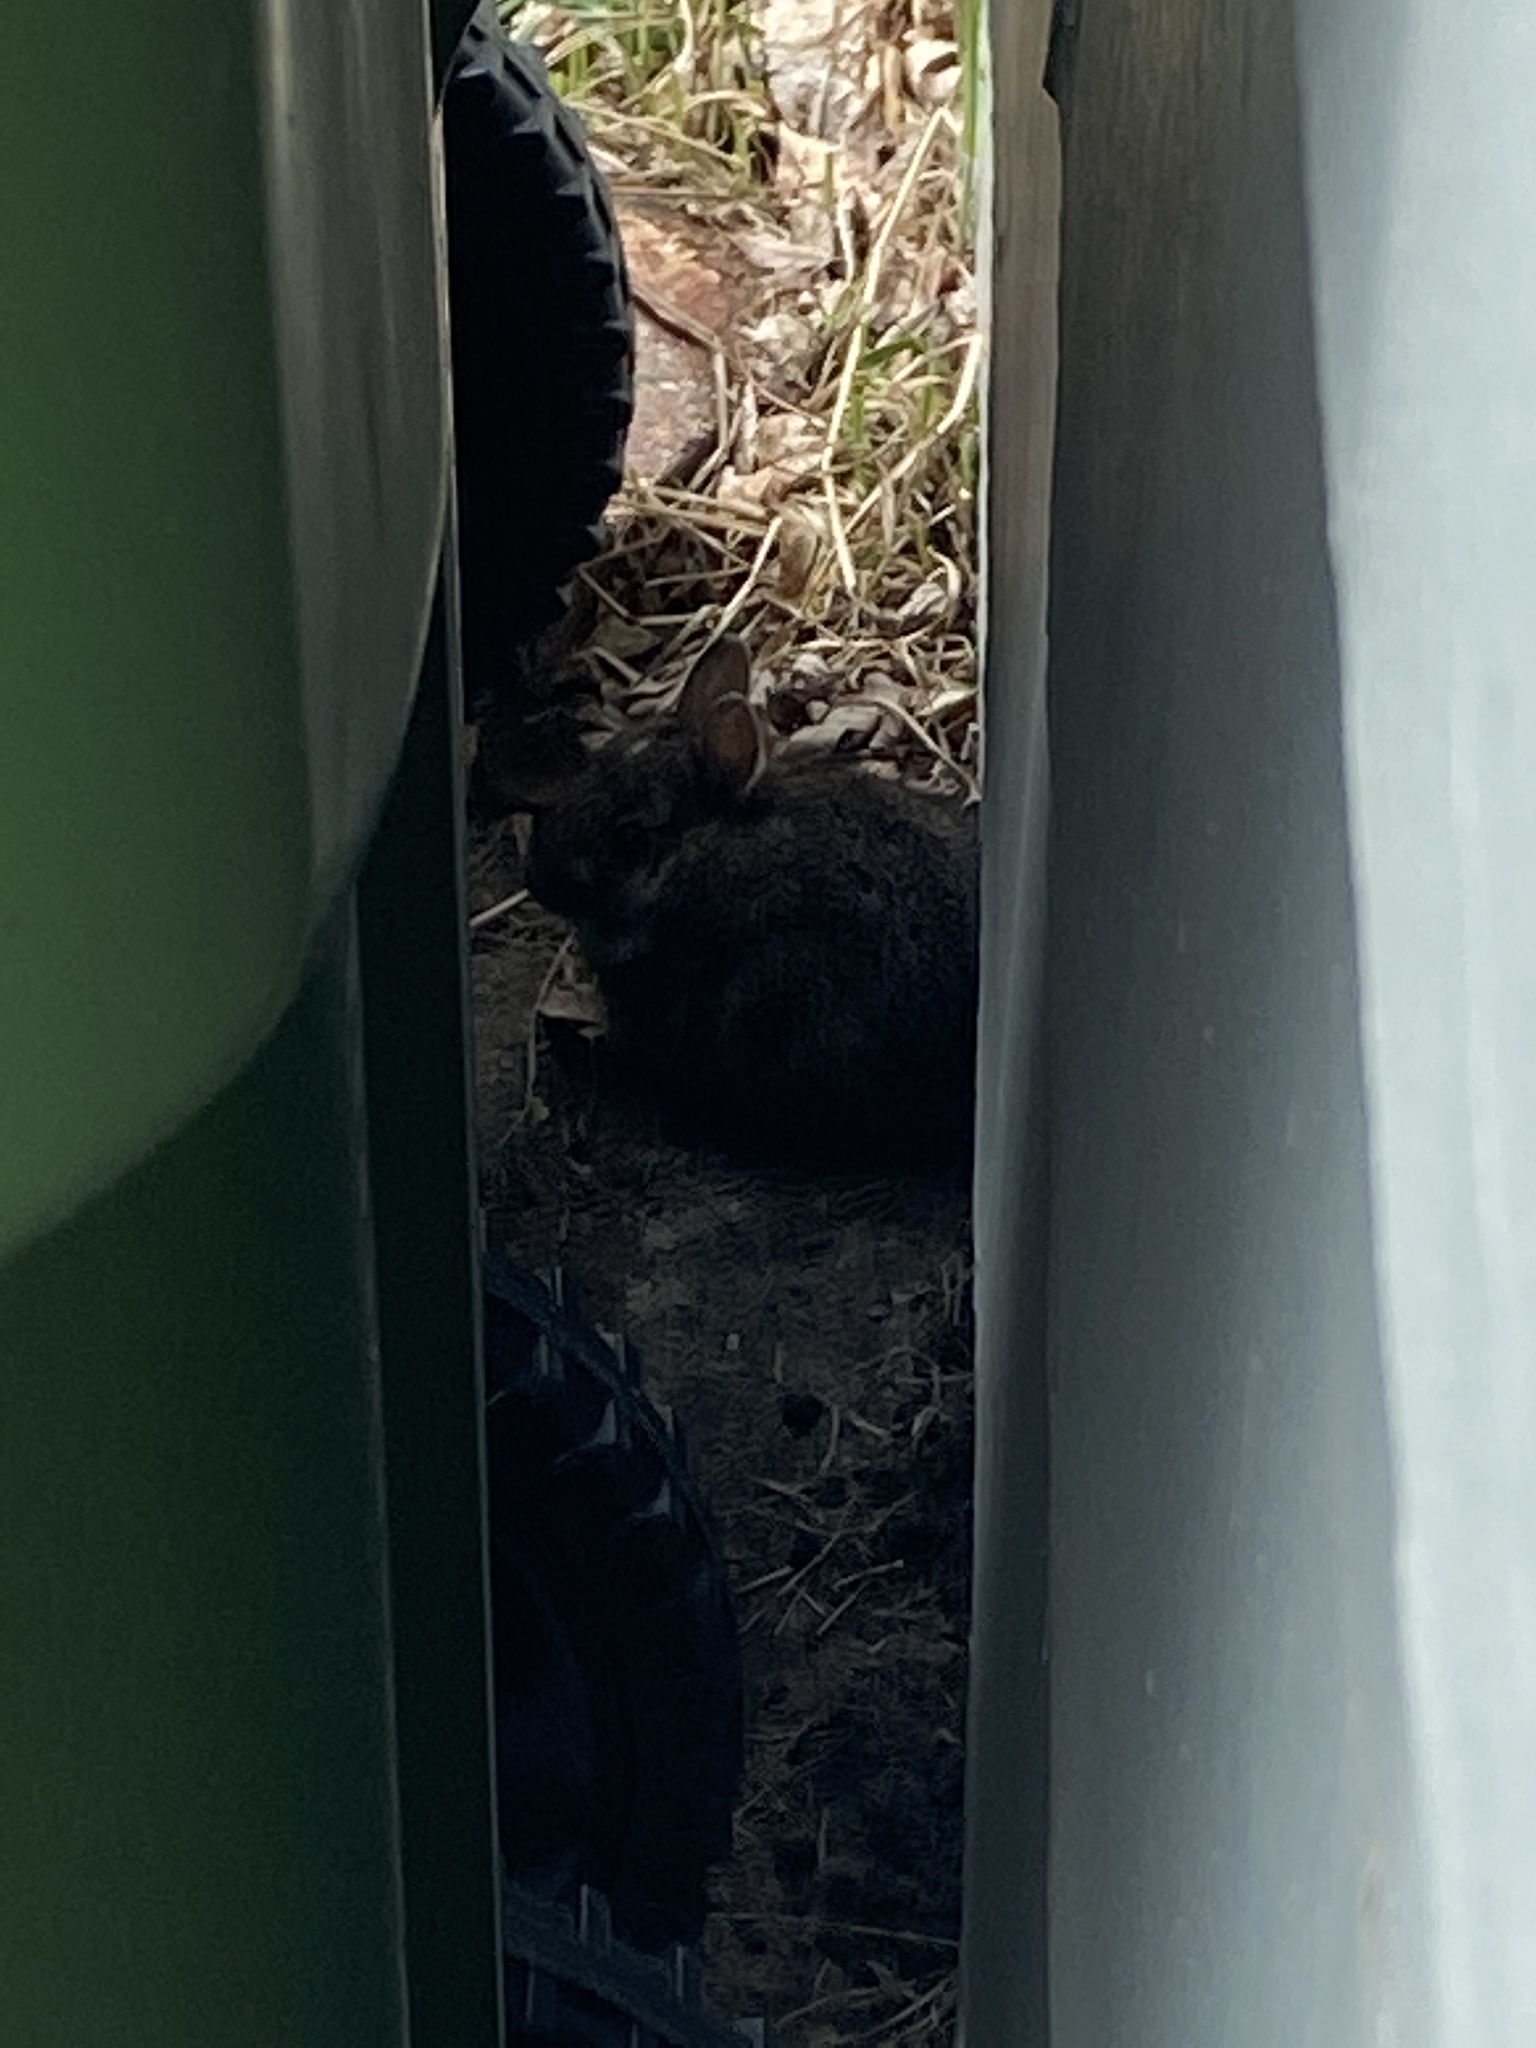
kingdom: Animalia
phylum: Chordata
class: Mammalia
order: Lagomorpha
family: Leporidae
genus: Sylvilagus
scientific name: Sylvilagus floridanus
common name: Eastern cottontail
